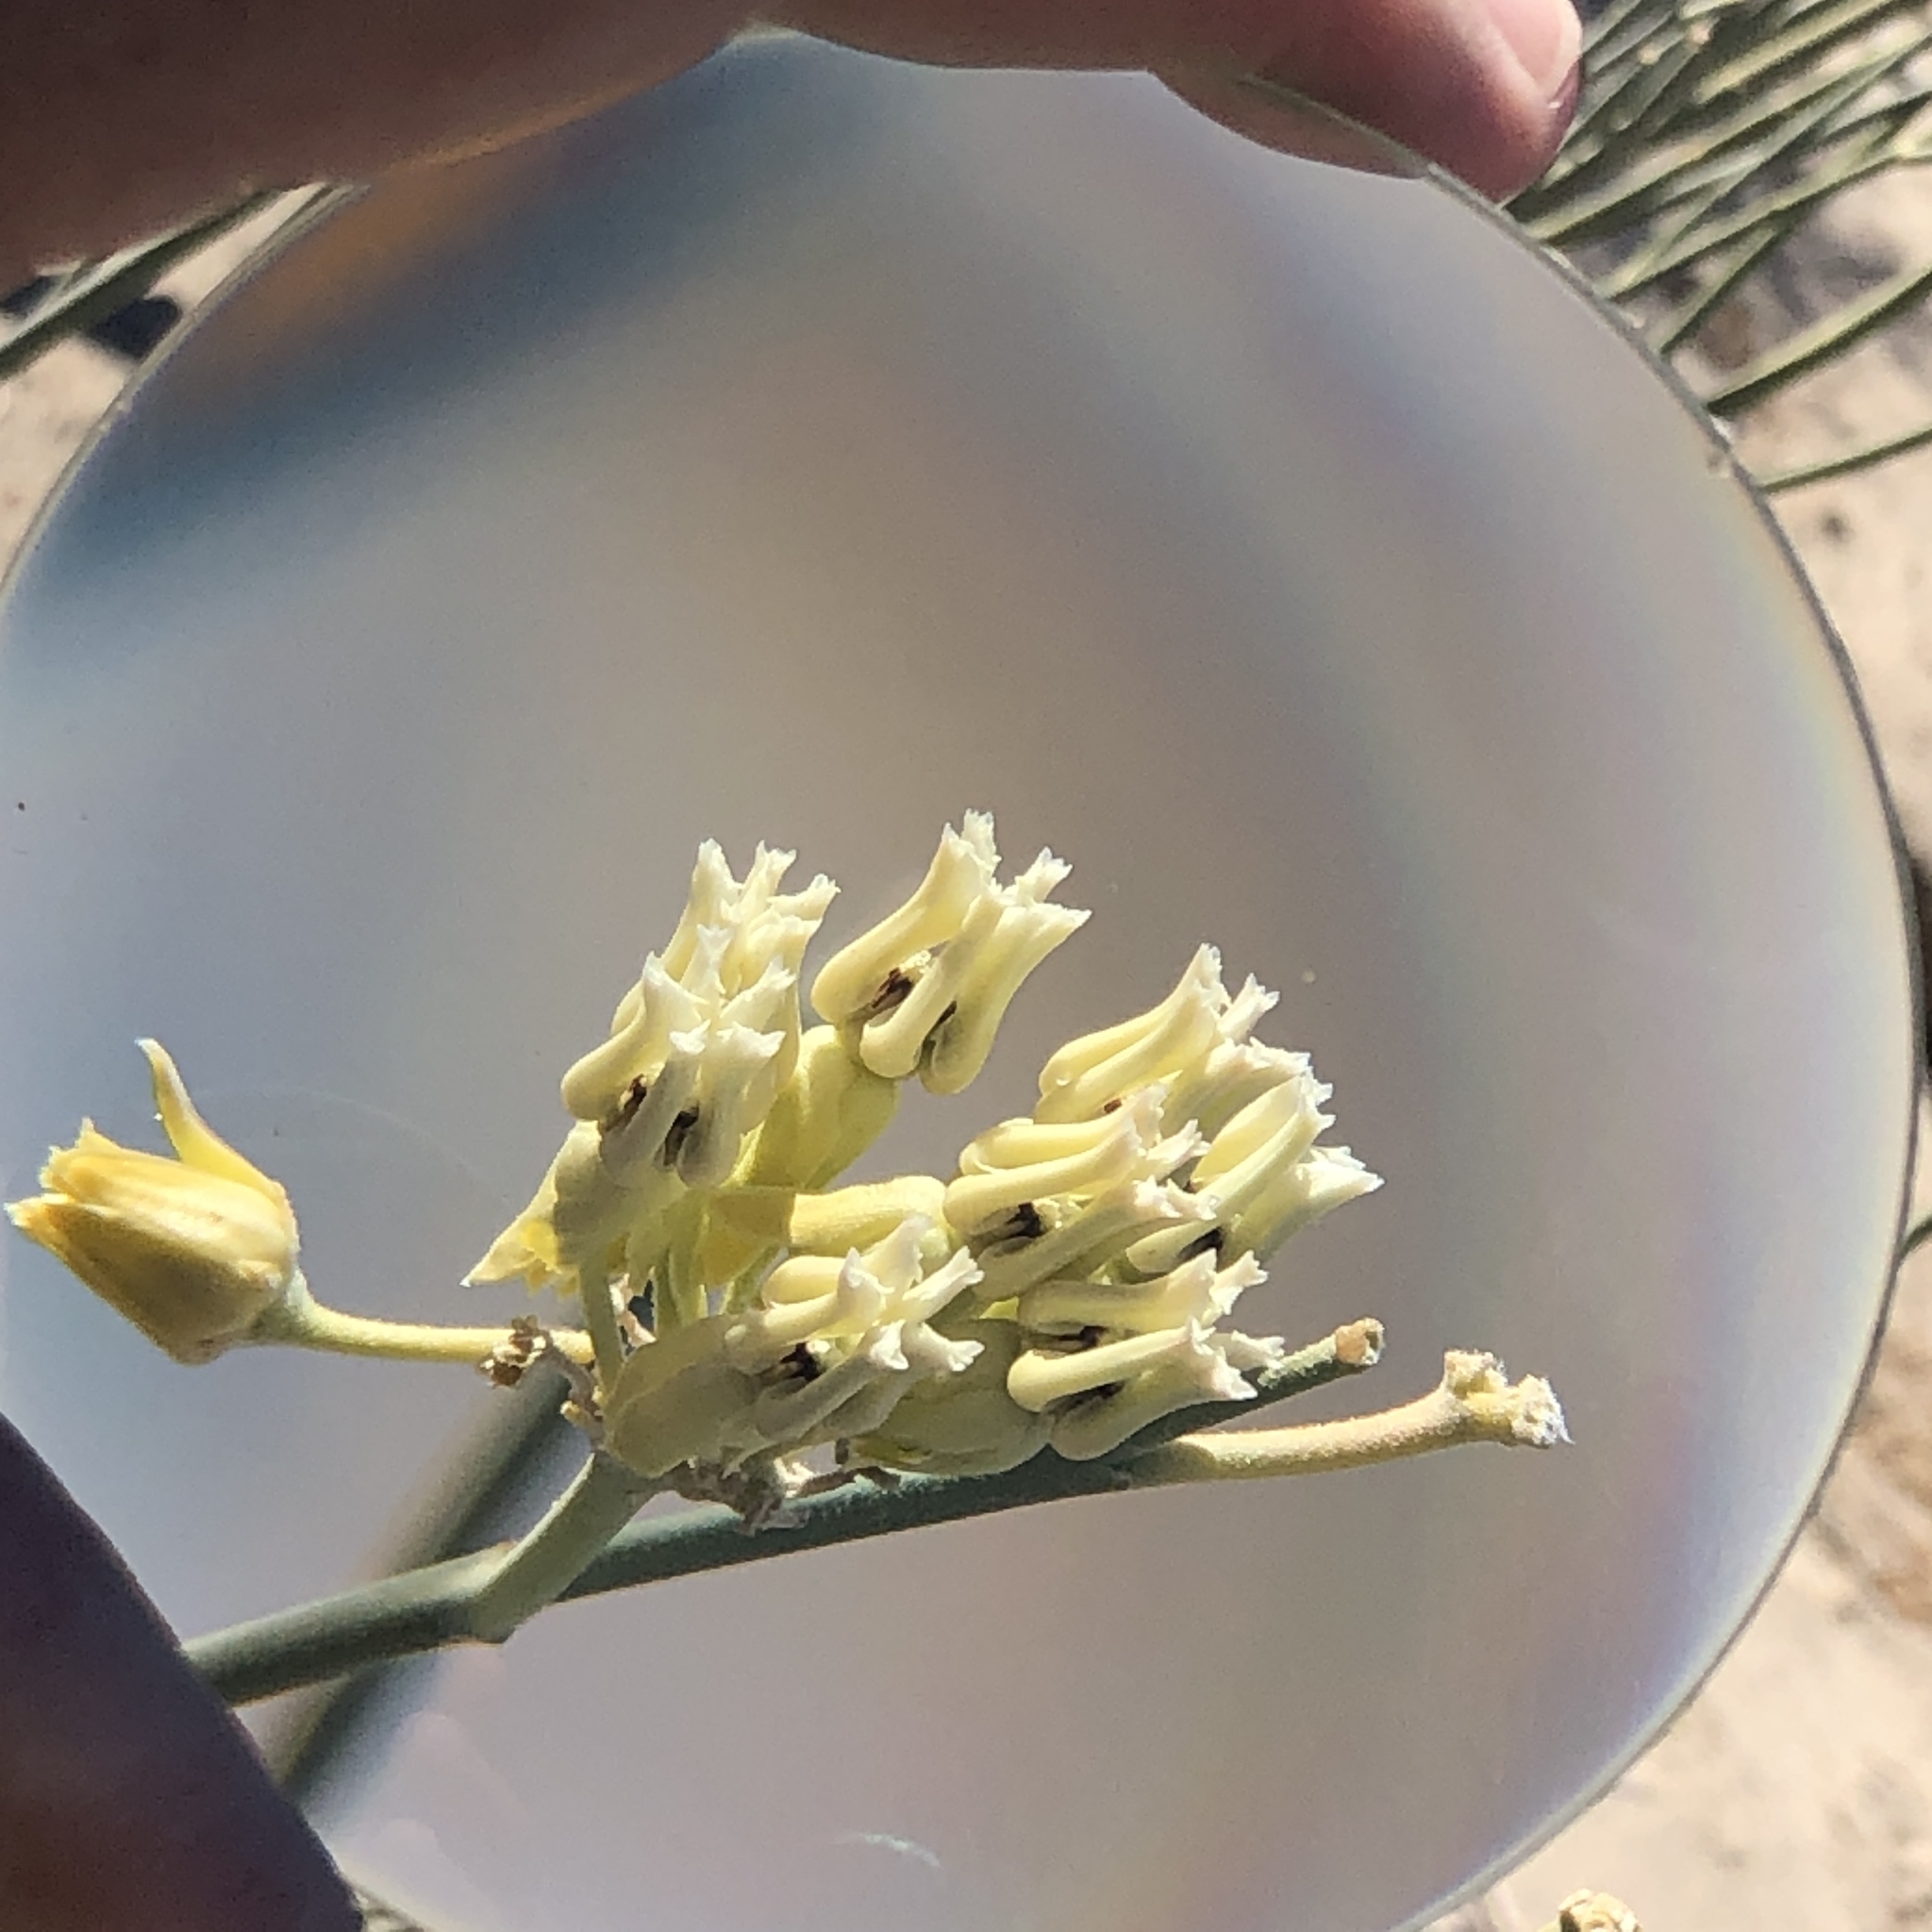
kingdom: Plantae
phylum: Tracheophyta
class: Magnoliopsida
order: Gentianales
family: Apocynaceae
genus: Asclepias
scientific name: Asclepias subulata
